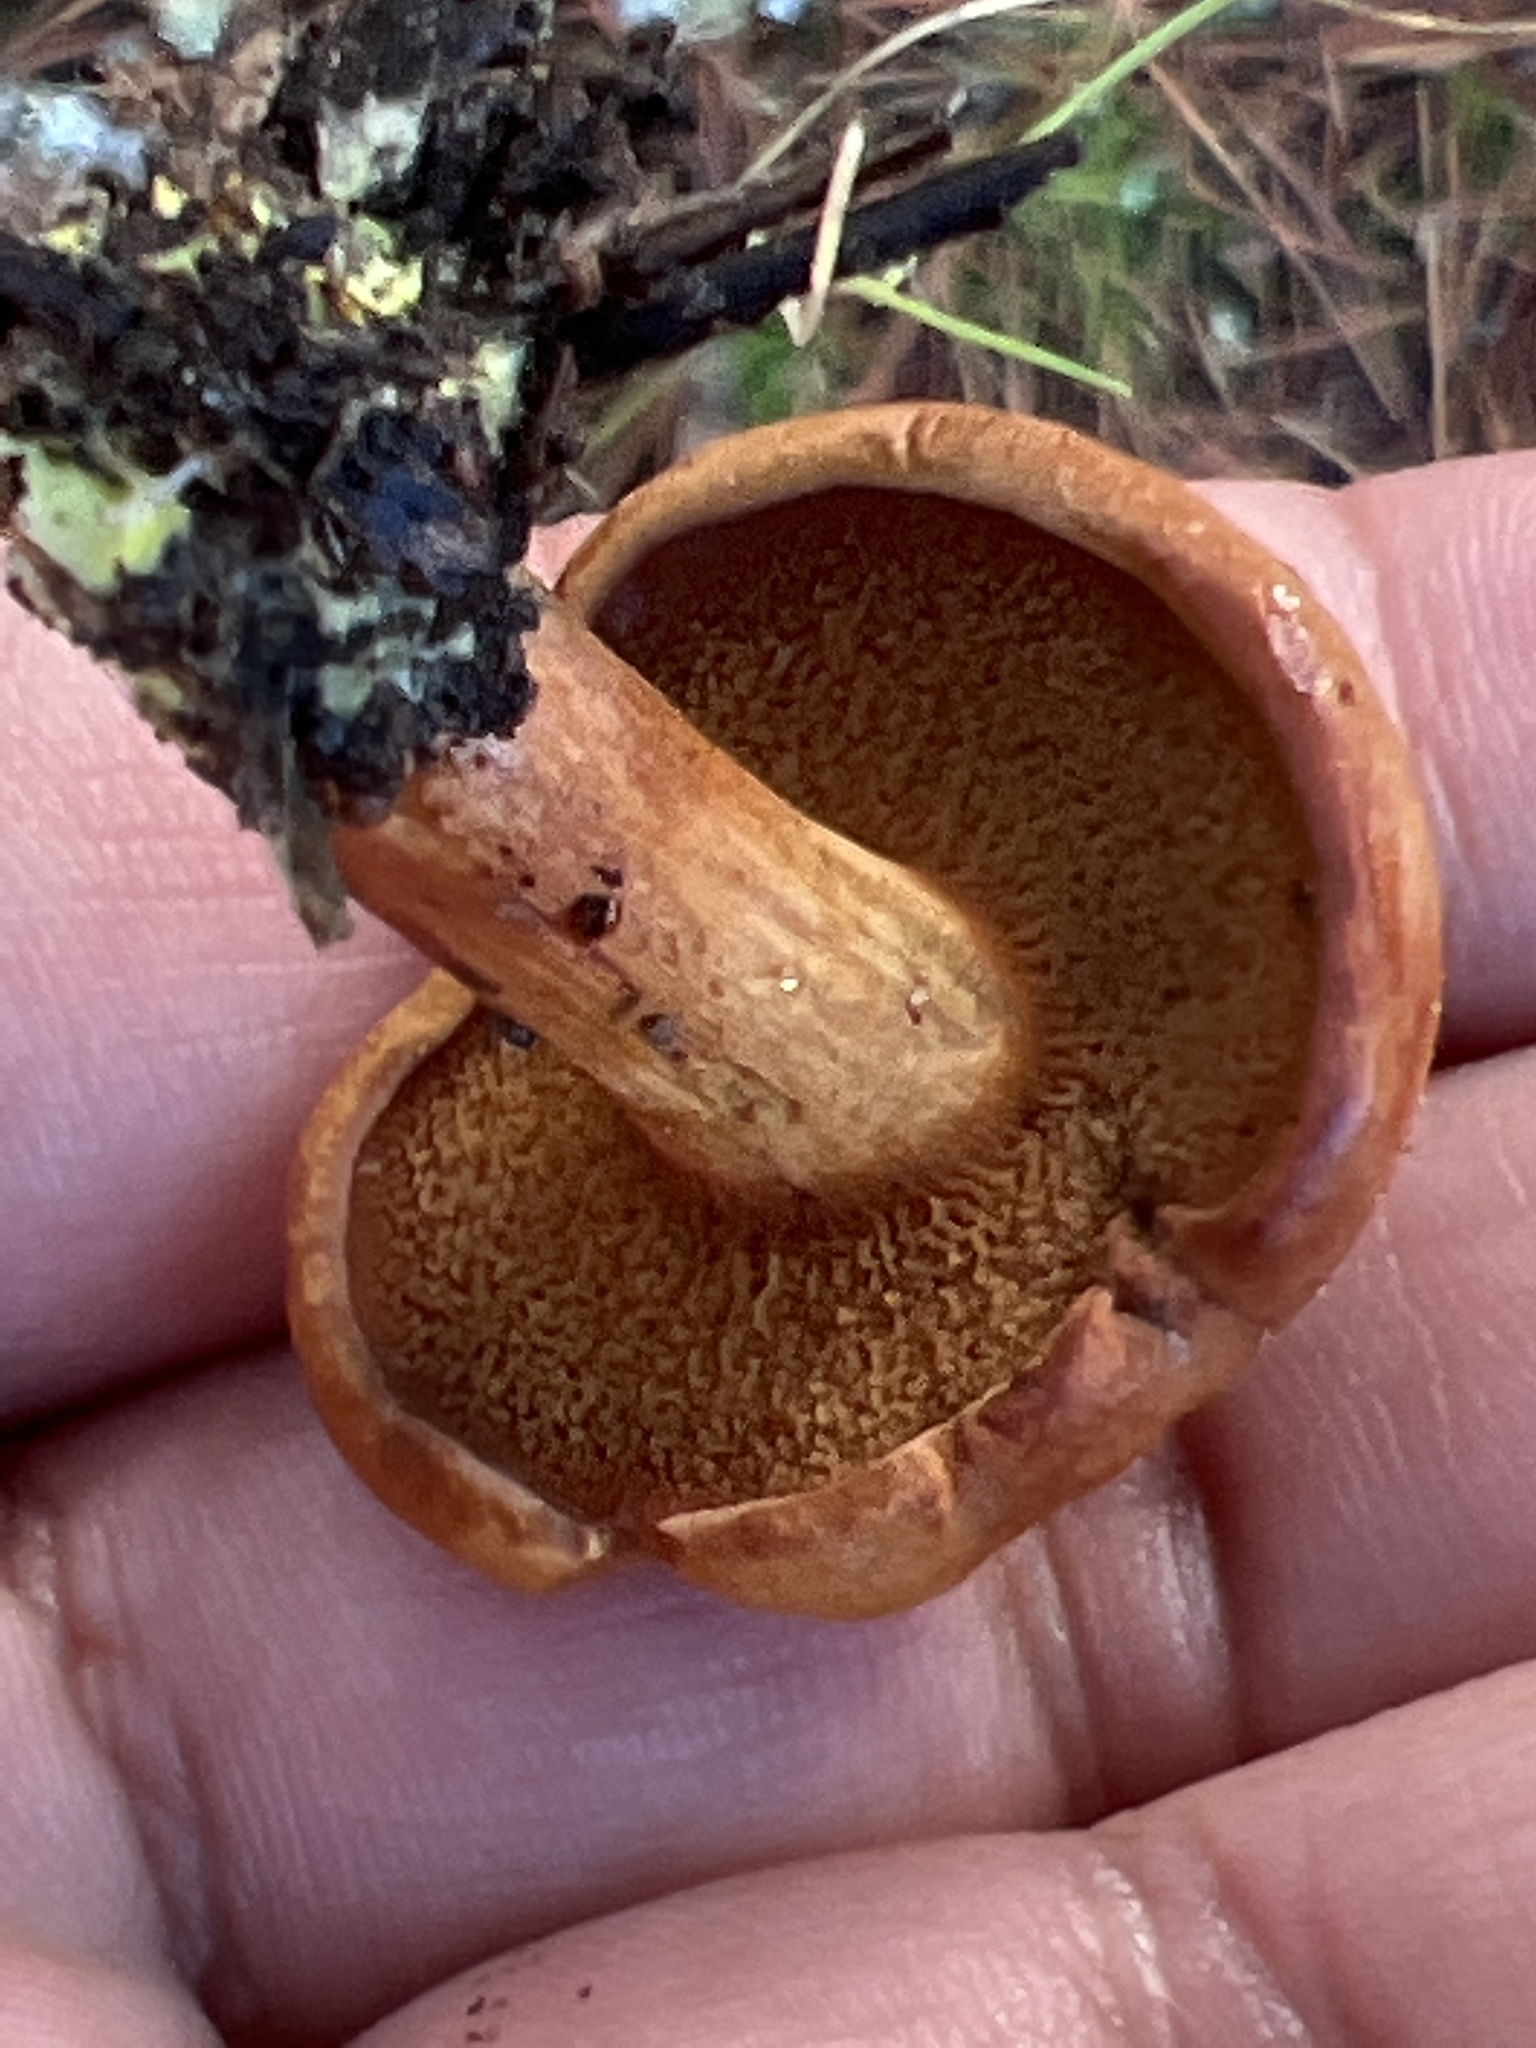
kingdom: Fungi
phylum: Basidiomycota
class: Agaricomycetes
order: Boletales
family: Boletaceae
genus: Chalciporus
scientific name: Chalciporus piperatus
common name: Peppery bolete
